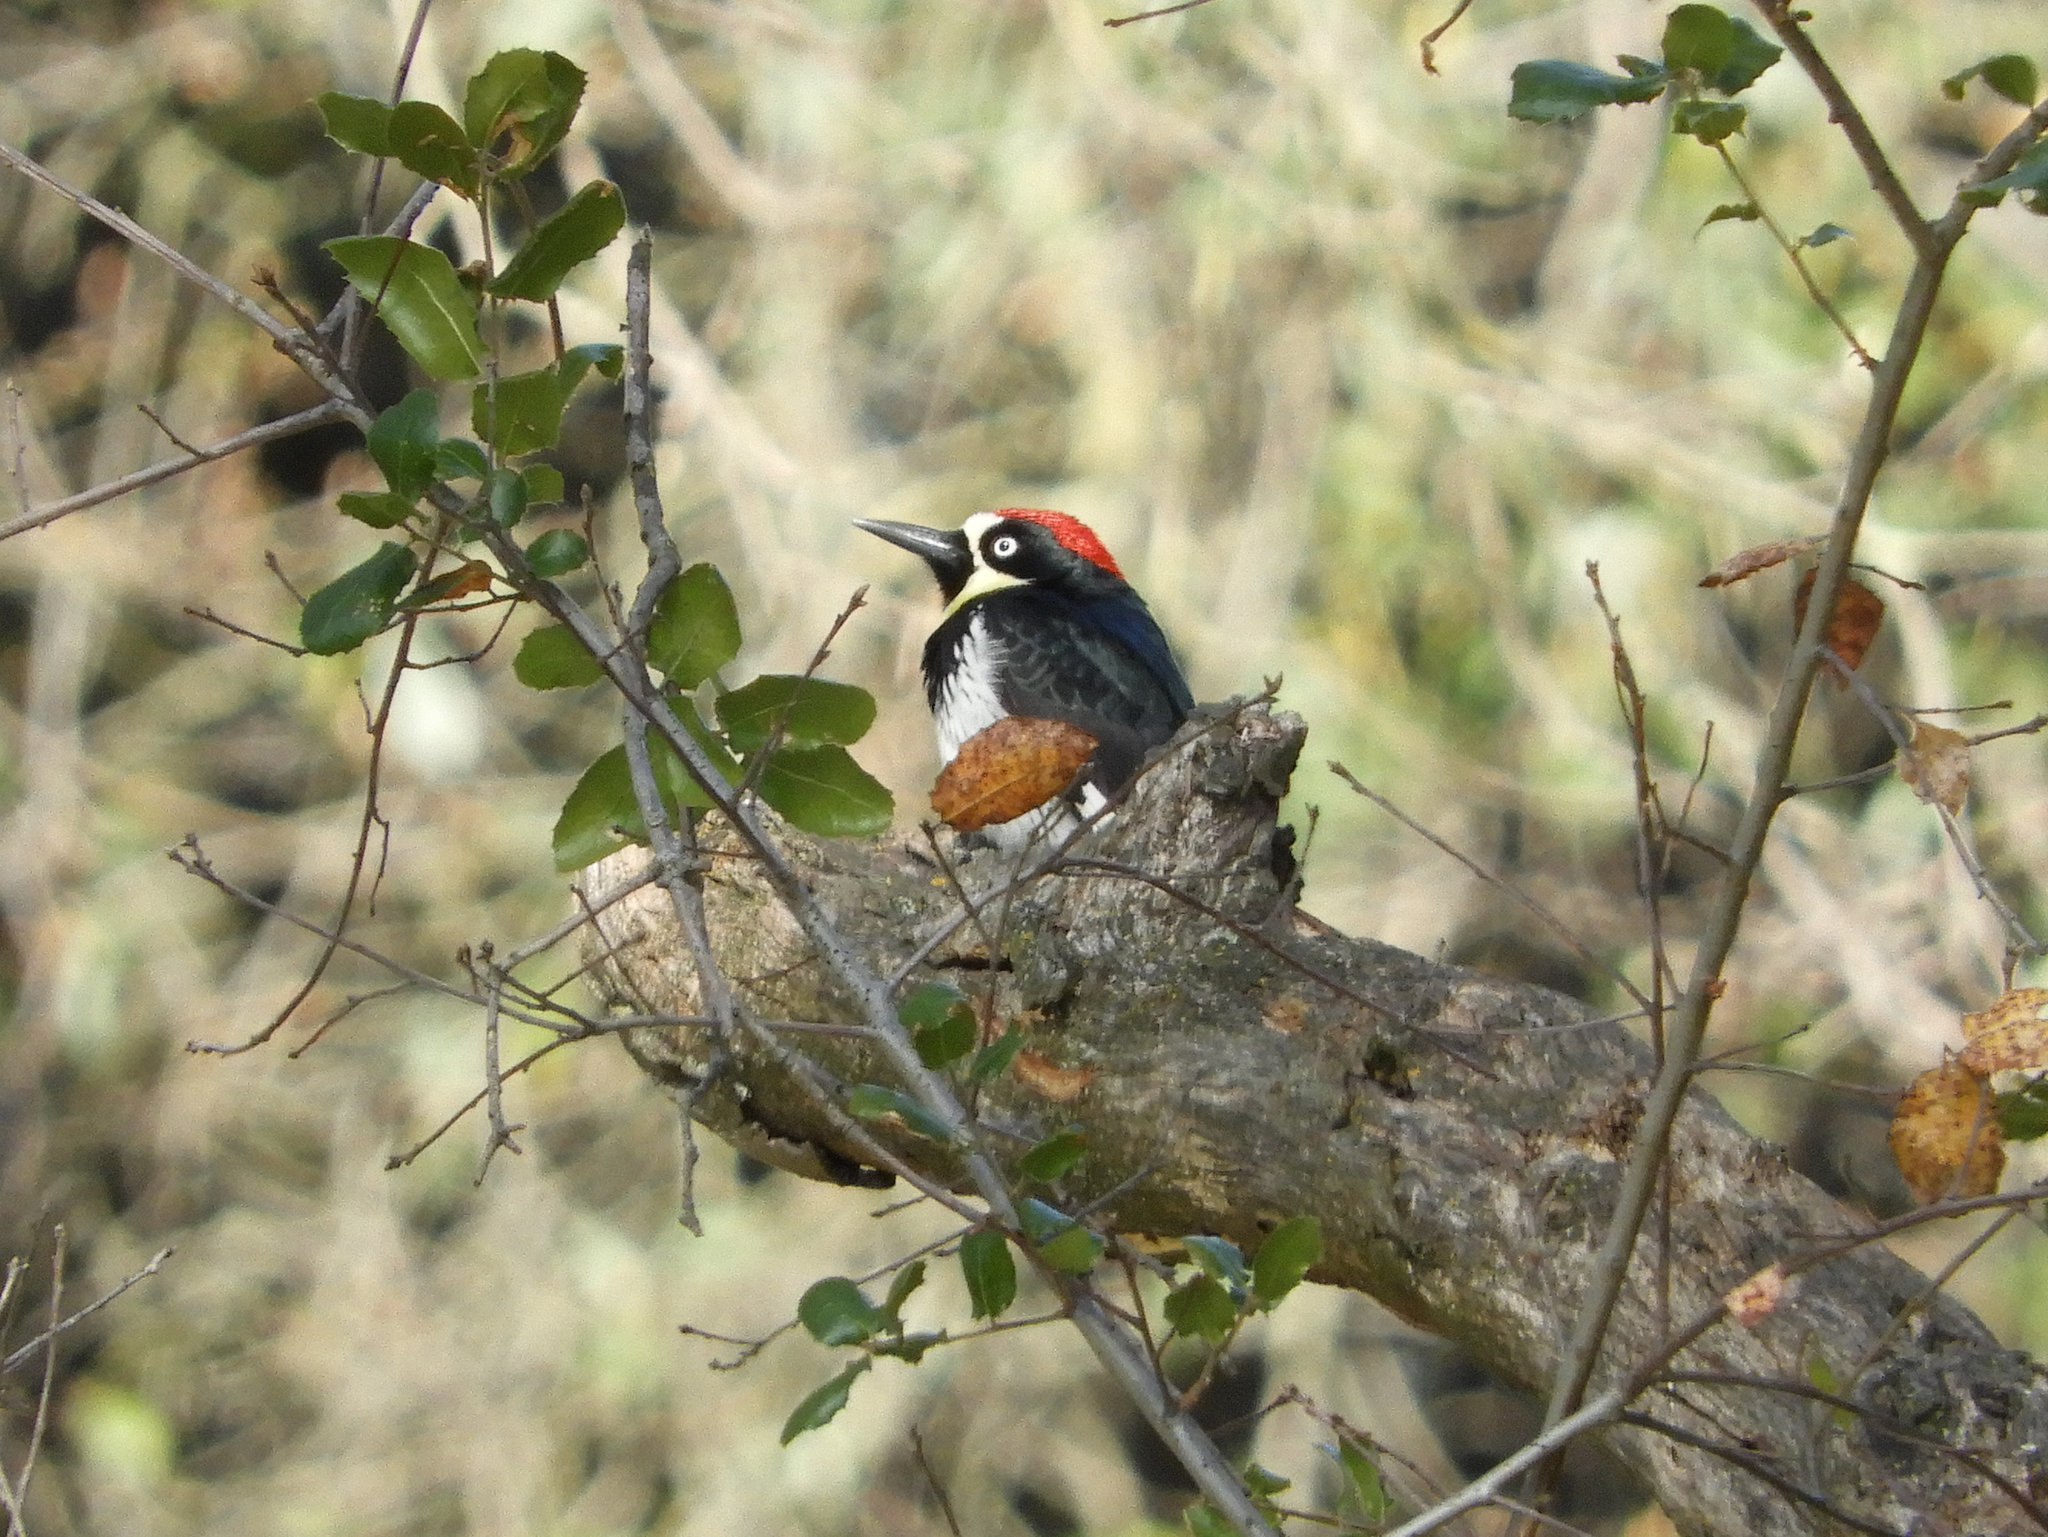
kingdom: Animalia
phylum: Chordata
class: Aves
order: Piciformes
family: Picidae
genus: Melanerpes
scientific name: Melanerpes formicivorus
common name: Acorn woodpecker
